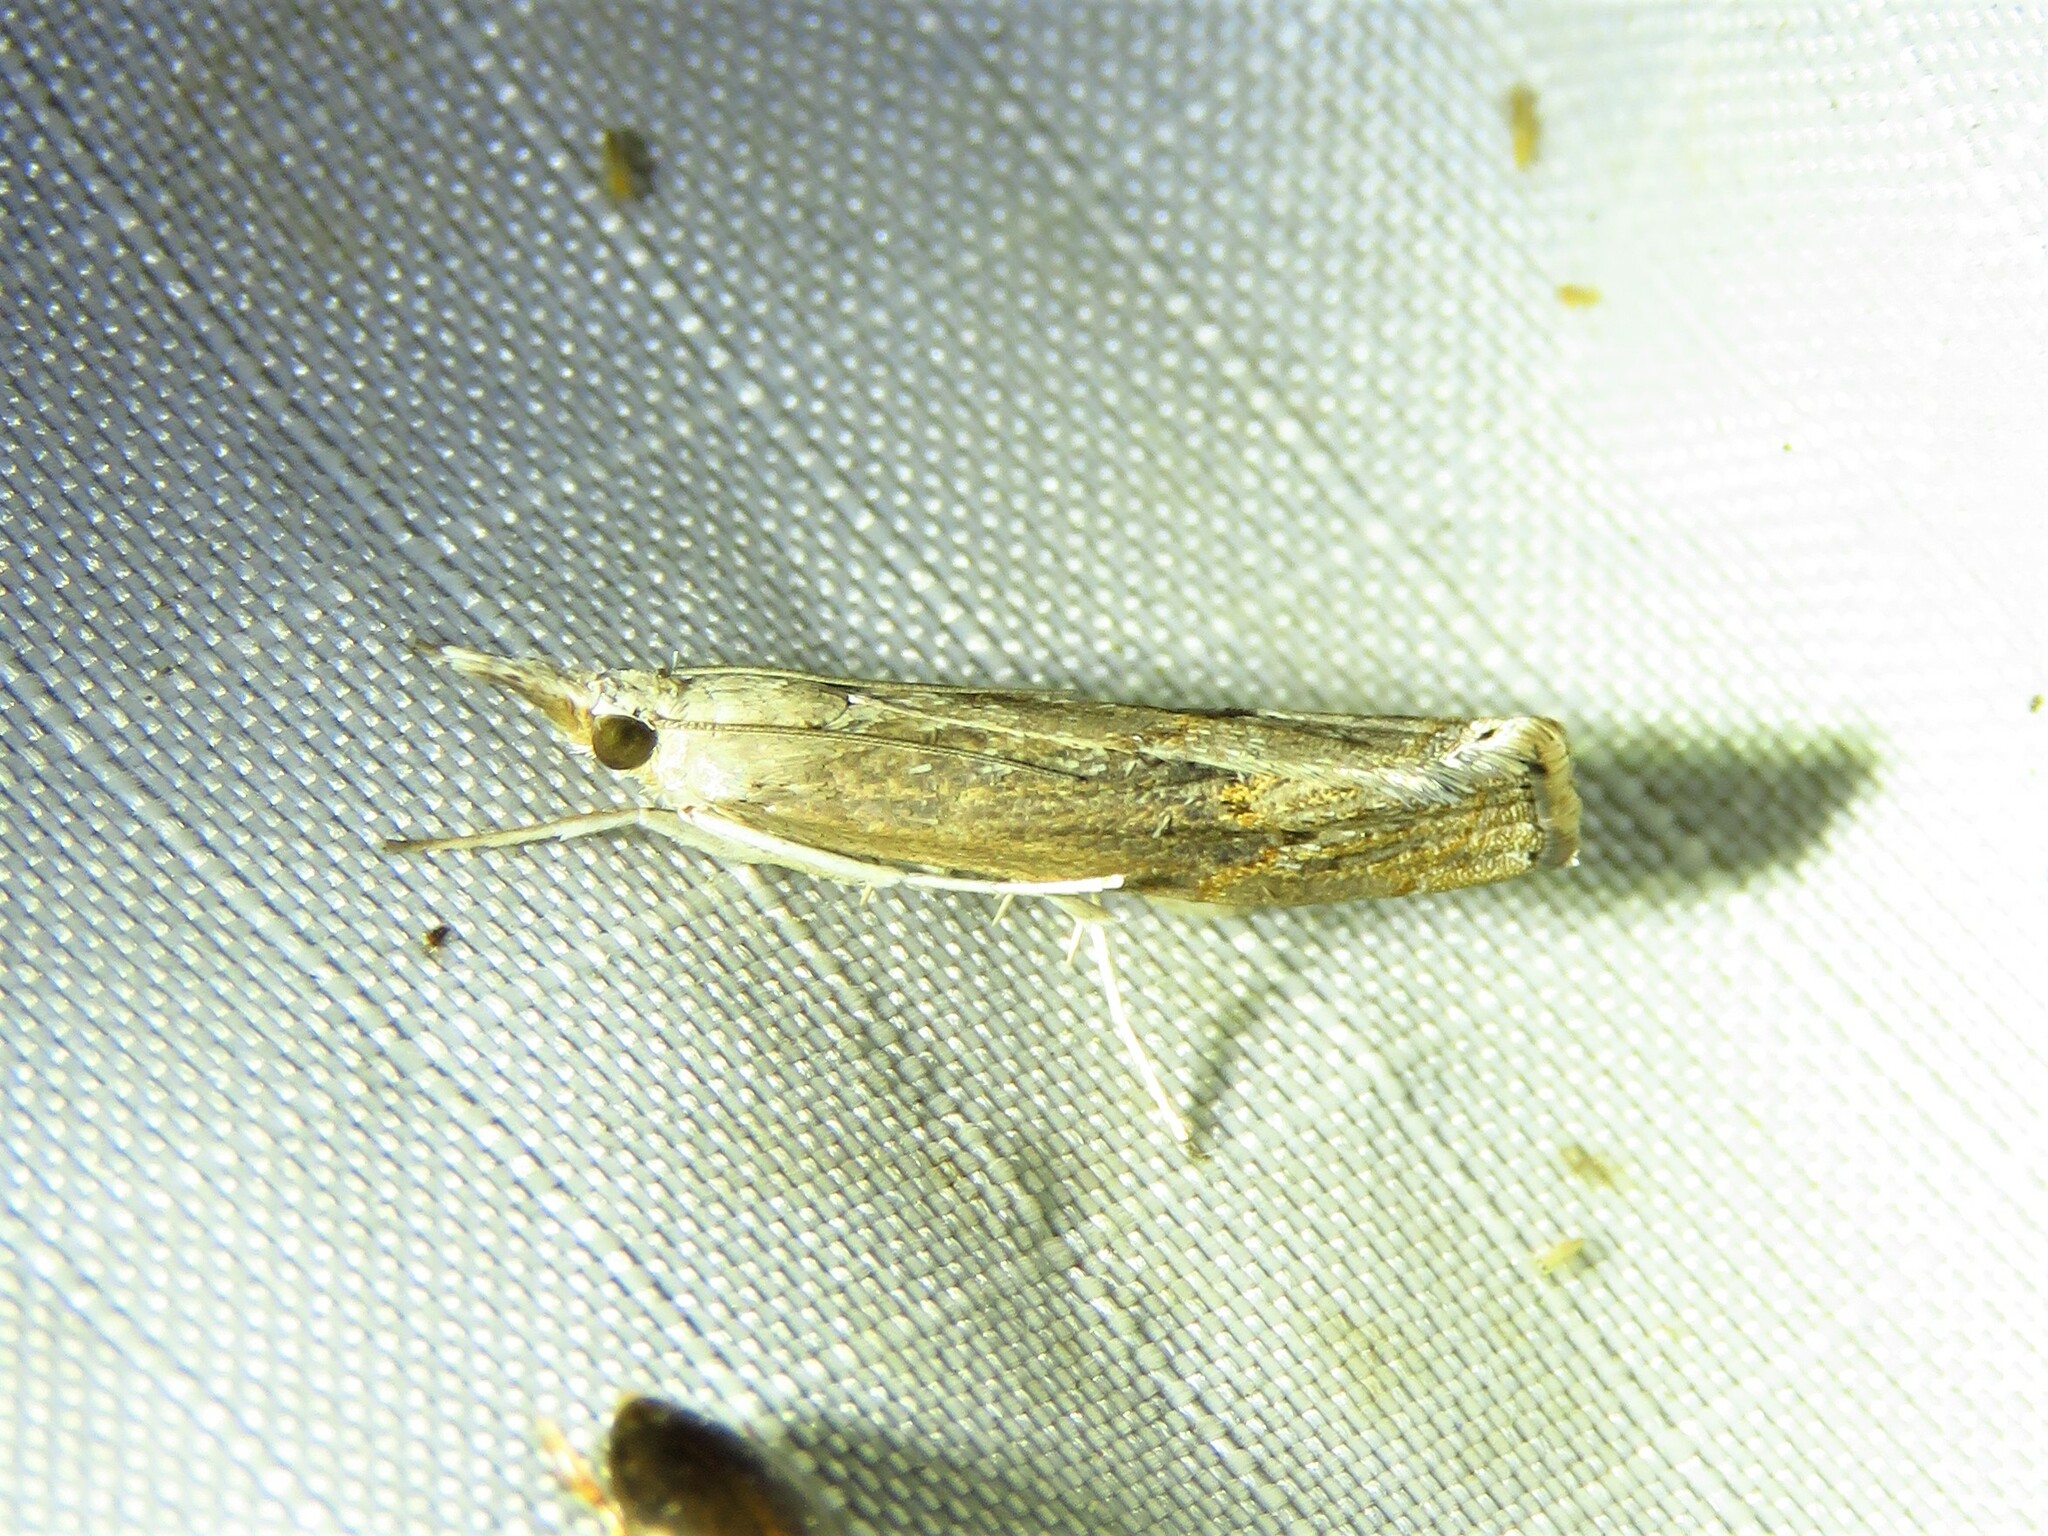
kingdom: Animalia
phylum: Arthropoda
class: Insecta
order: Lepidoptera
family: Crambidae
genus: Parapediasia
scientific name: Parapediasia teterellus
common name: Bluegrass webworm moth
